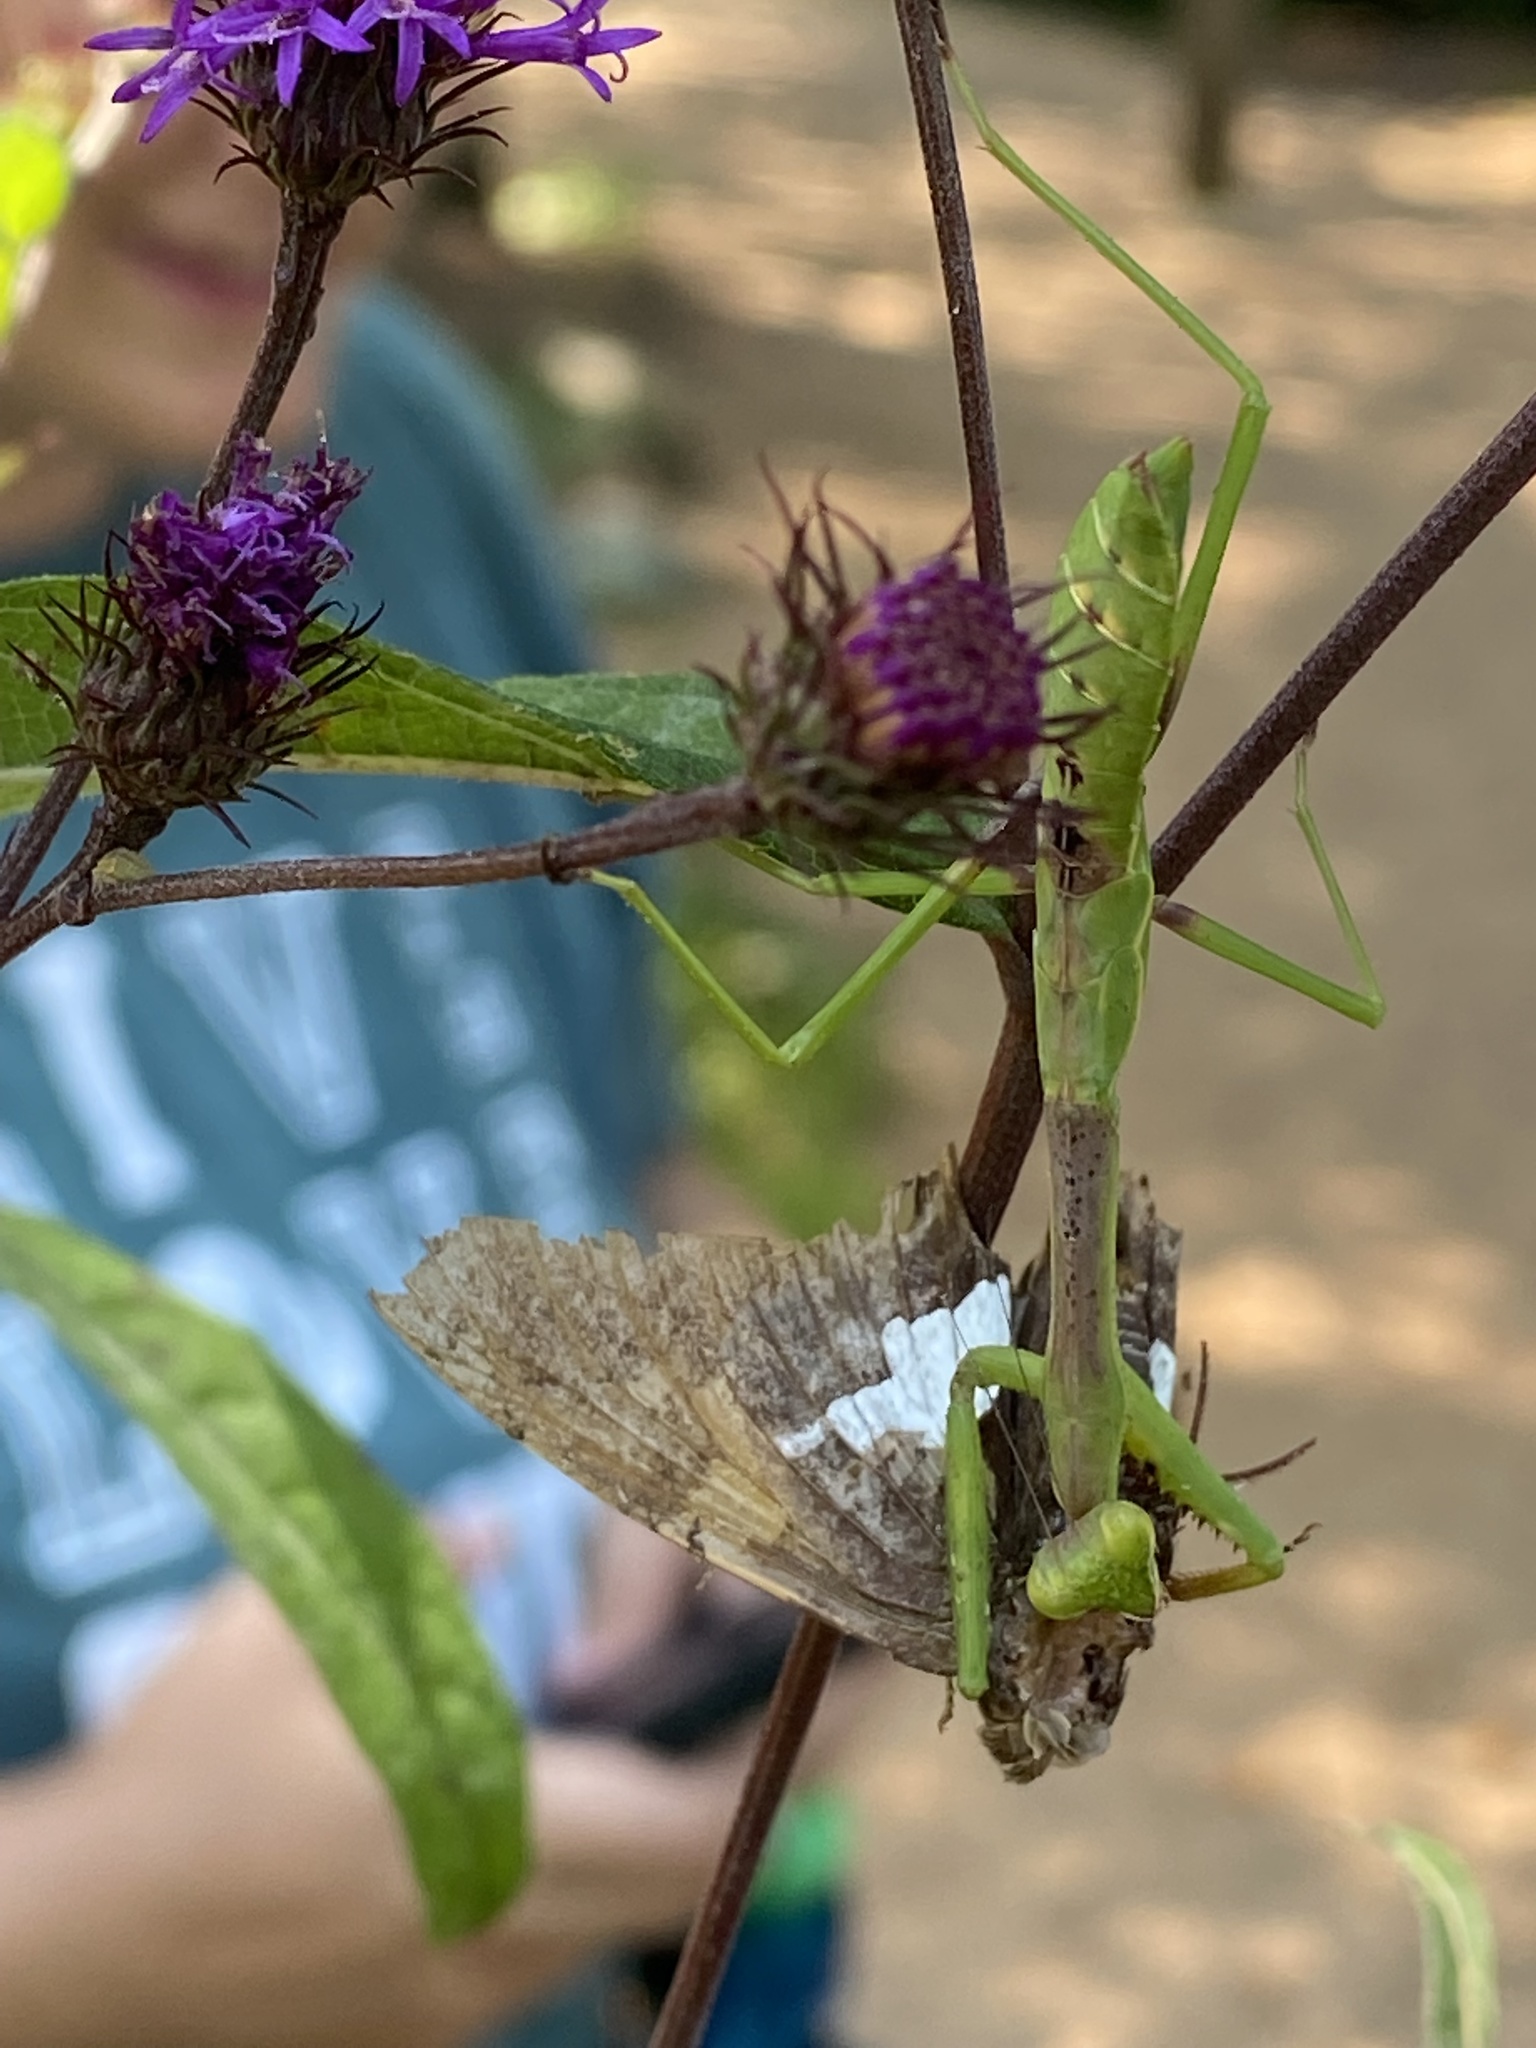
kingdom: Animalia
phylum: Arthropoda
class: Insecta
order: Mantodea
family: Mantidae
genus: Stagmomantis
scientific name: Stagmomantis carolina
